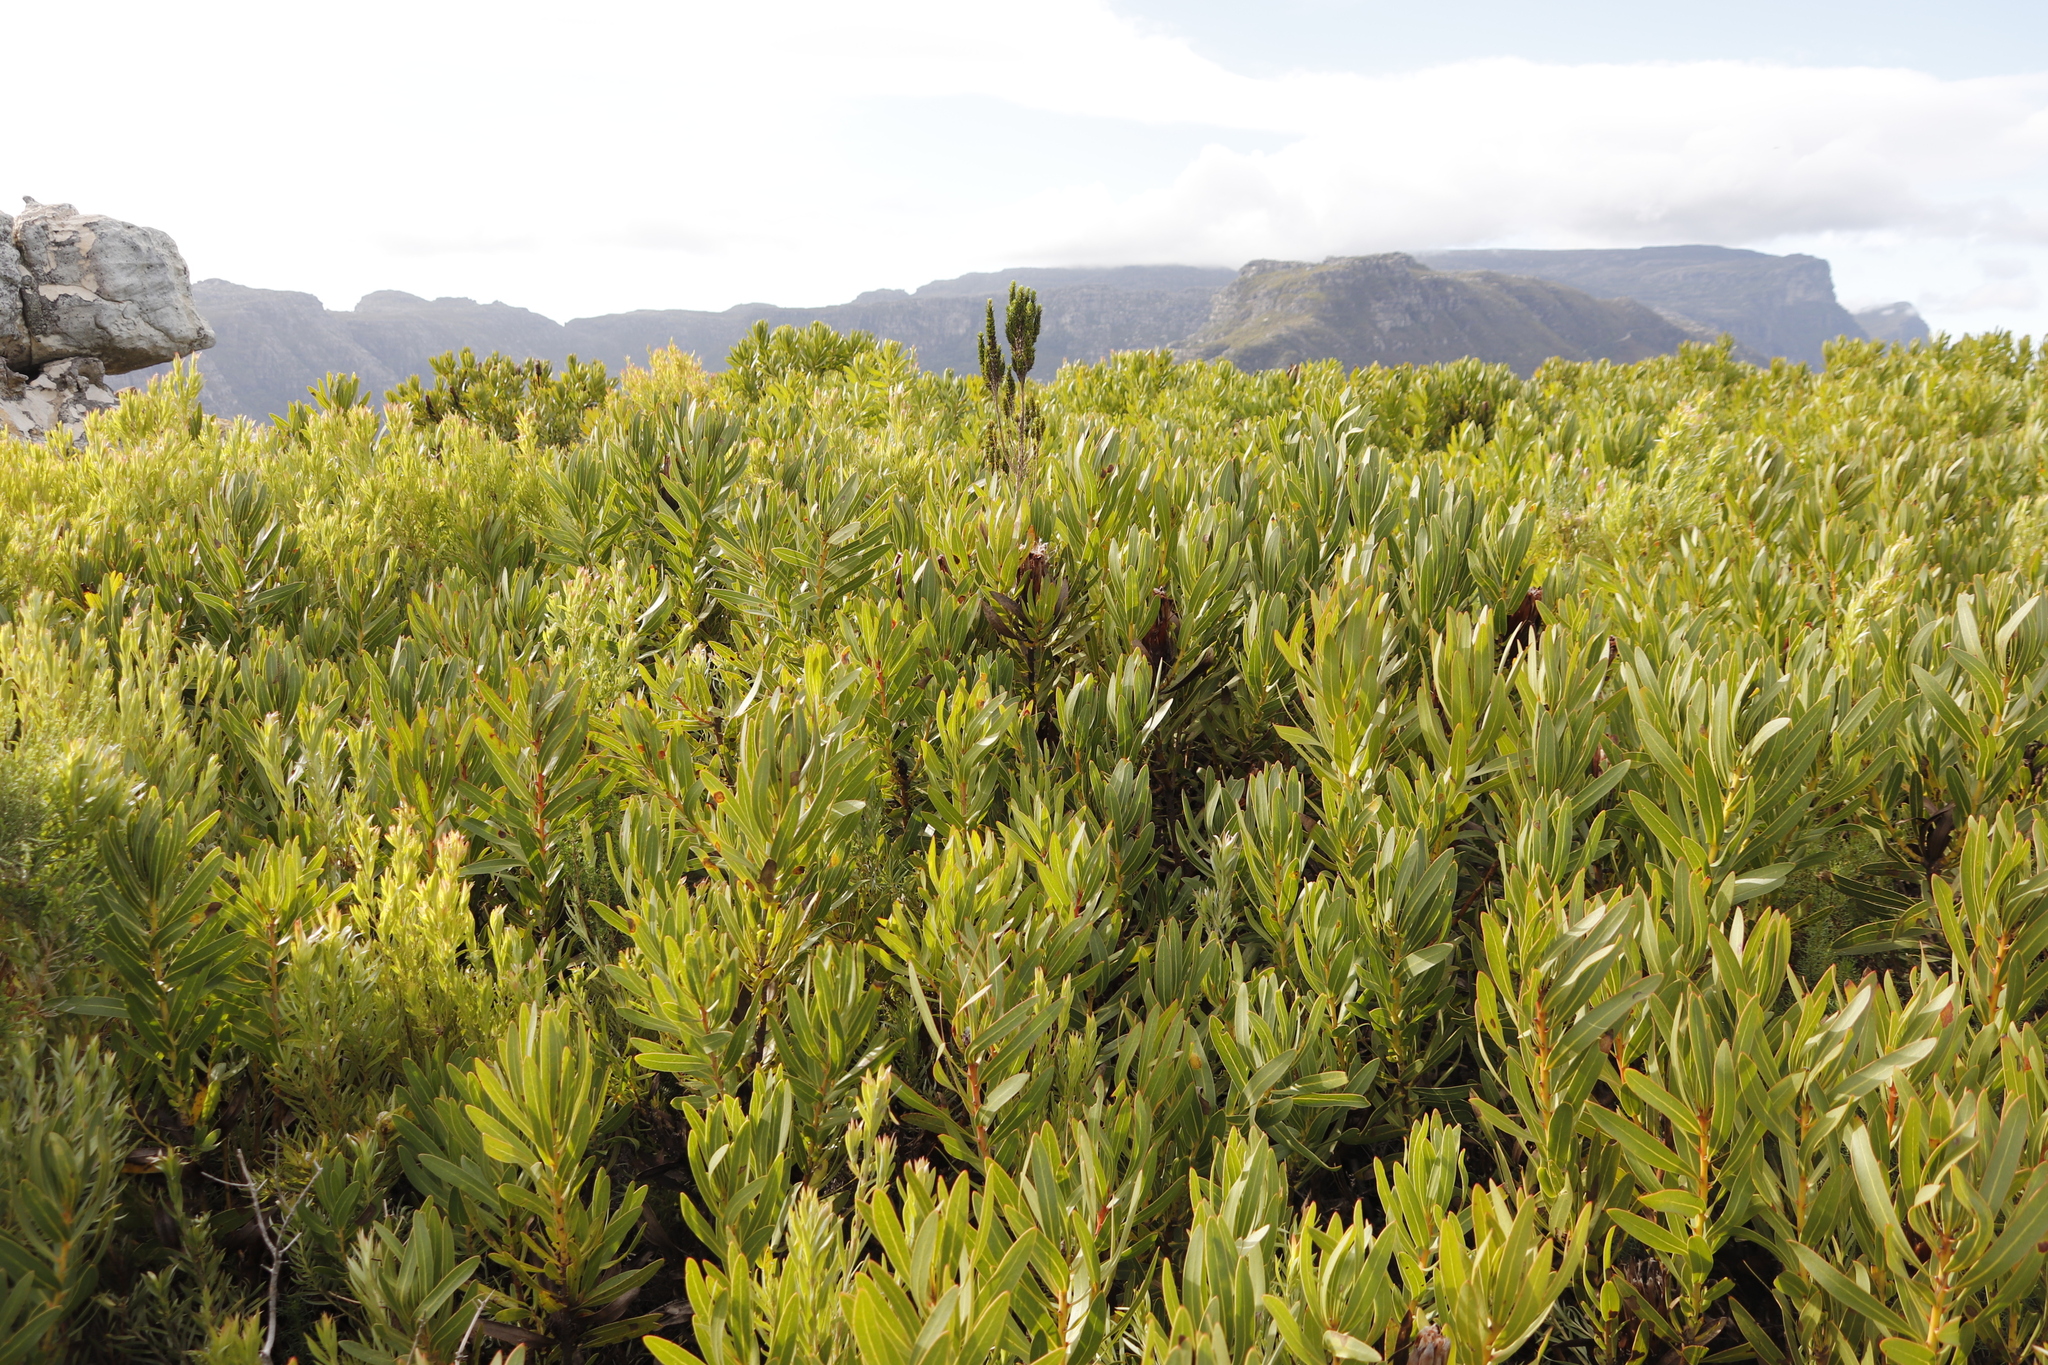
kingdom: Plantae
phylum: Tracheophyta
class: Magnoliopsida
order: Proteales
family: Proteaceae
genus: Protea
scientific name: Protea lepidocarpodendron
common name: Black-bearded protea
